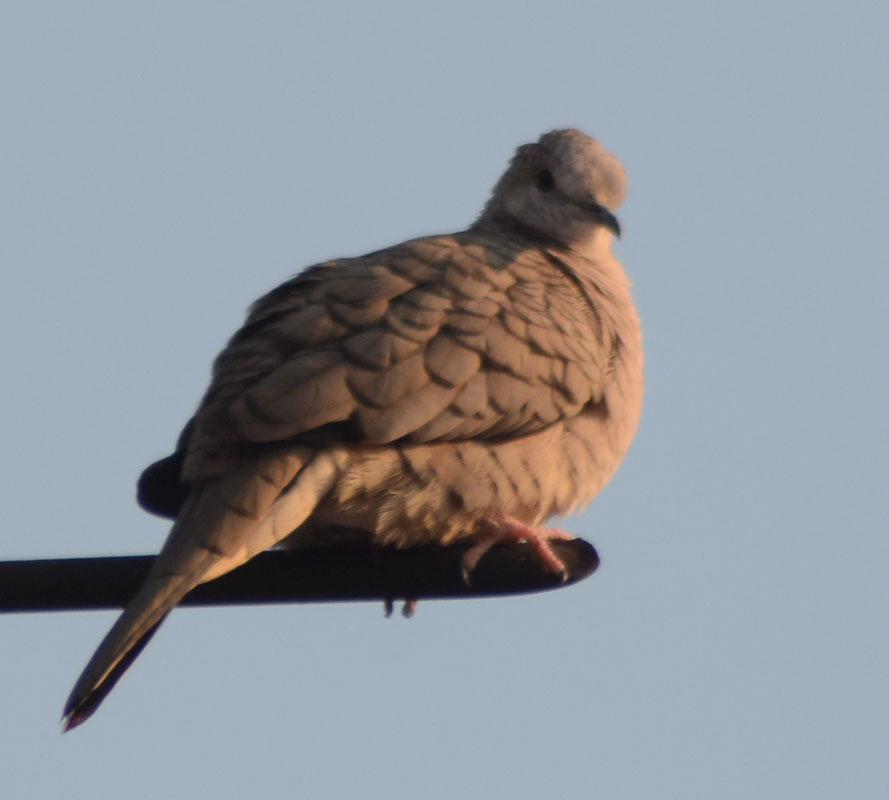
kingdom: Animalia
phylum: Chordata
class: Aves
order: Columbiformes
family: Columbidae
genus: Columbina
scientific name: Columbina inca
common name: Inca dove
